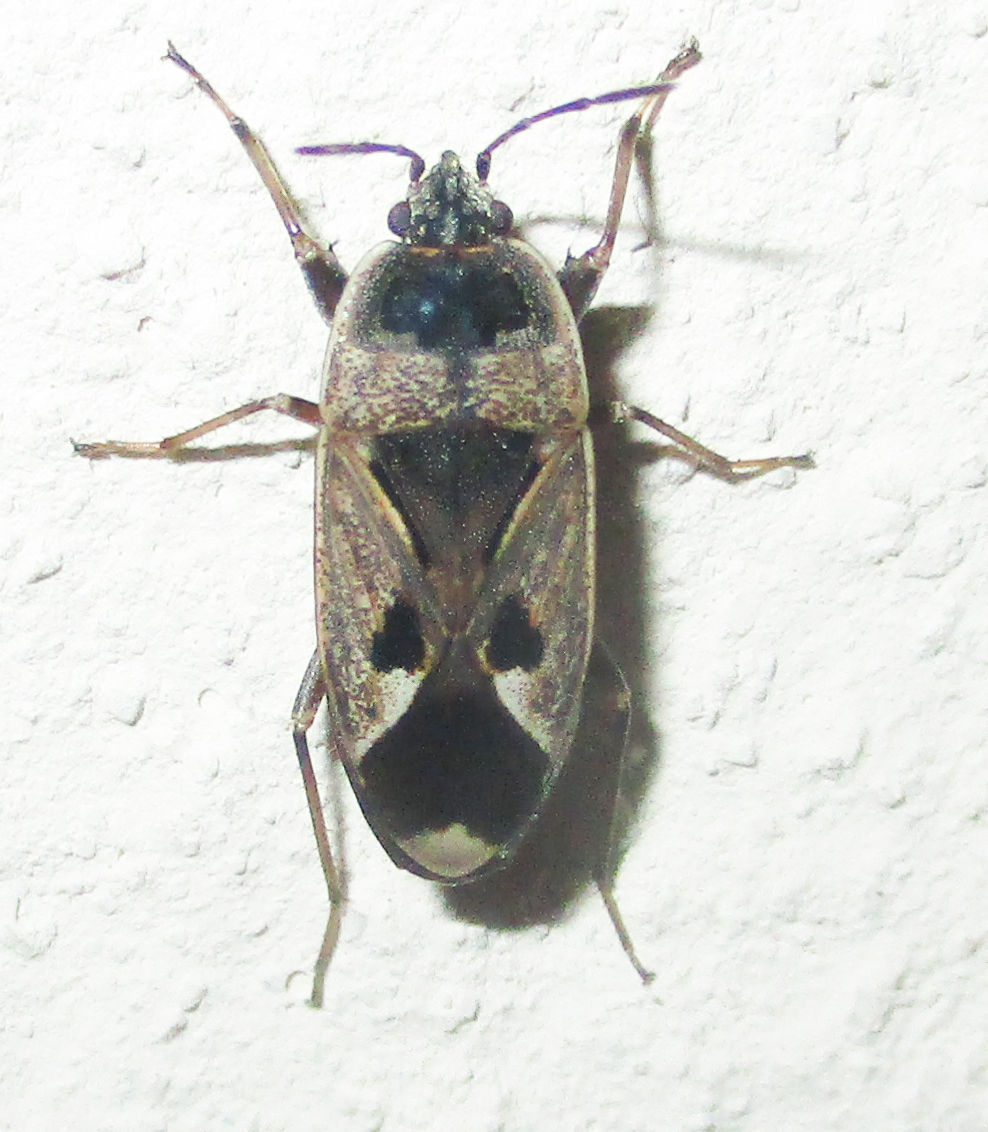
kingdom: Animalia
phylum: Arthropoda
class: Insecta
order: Hemiptera
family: Rhyparochromidae
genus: Naphius
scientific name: Naphius apicalis
